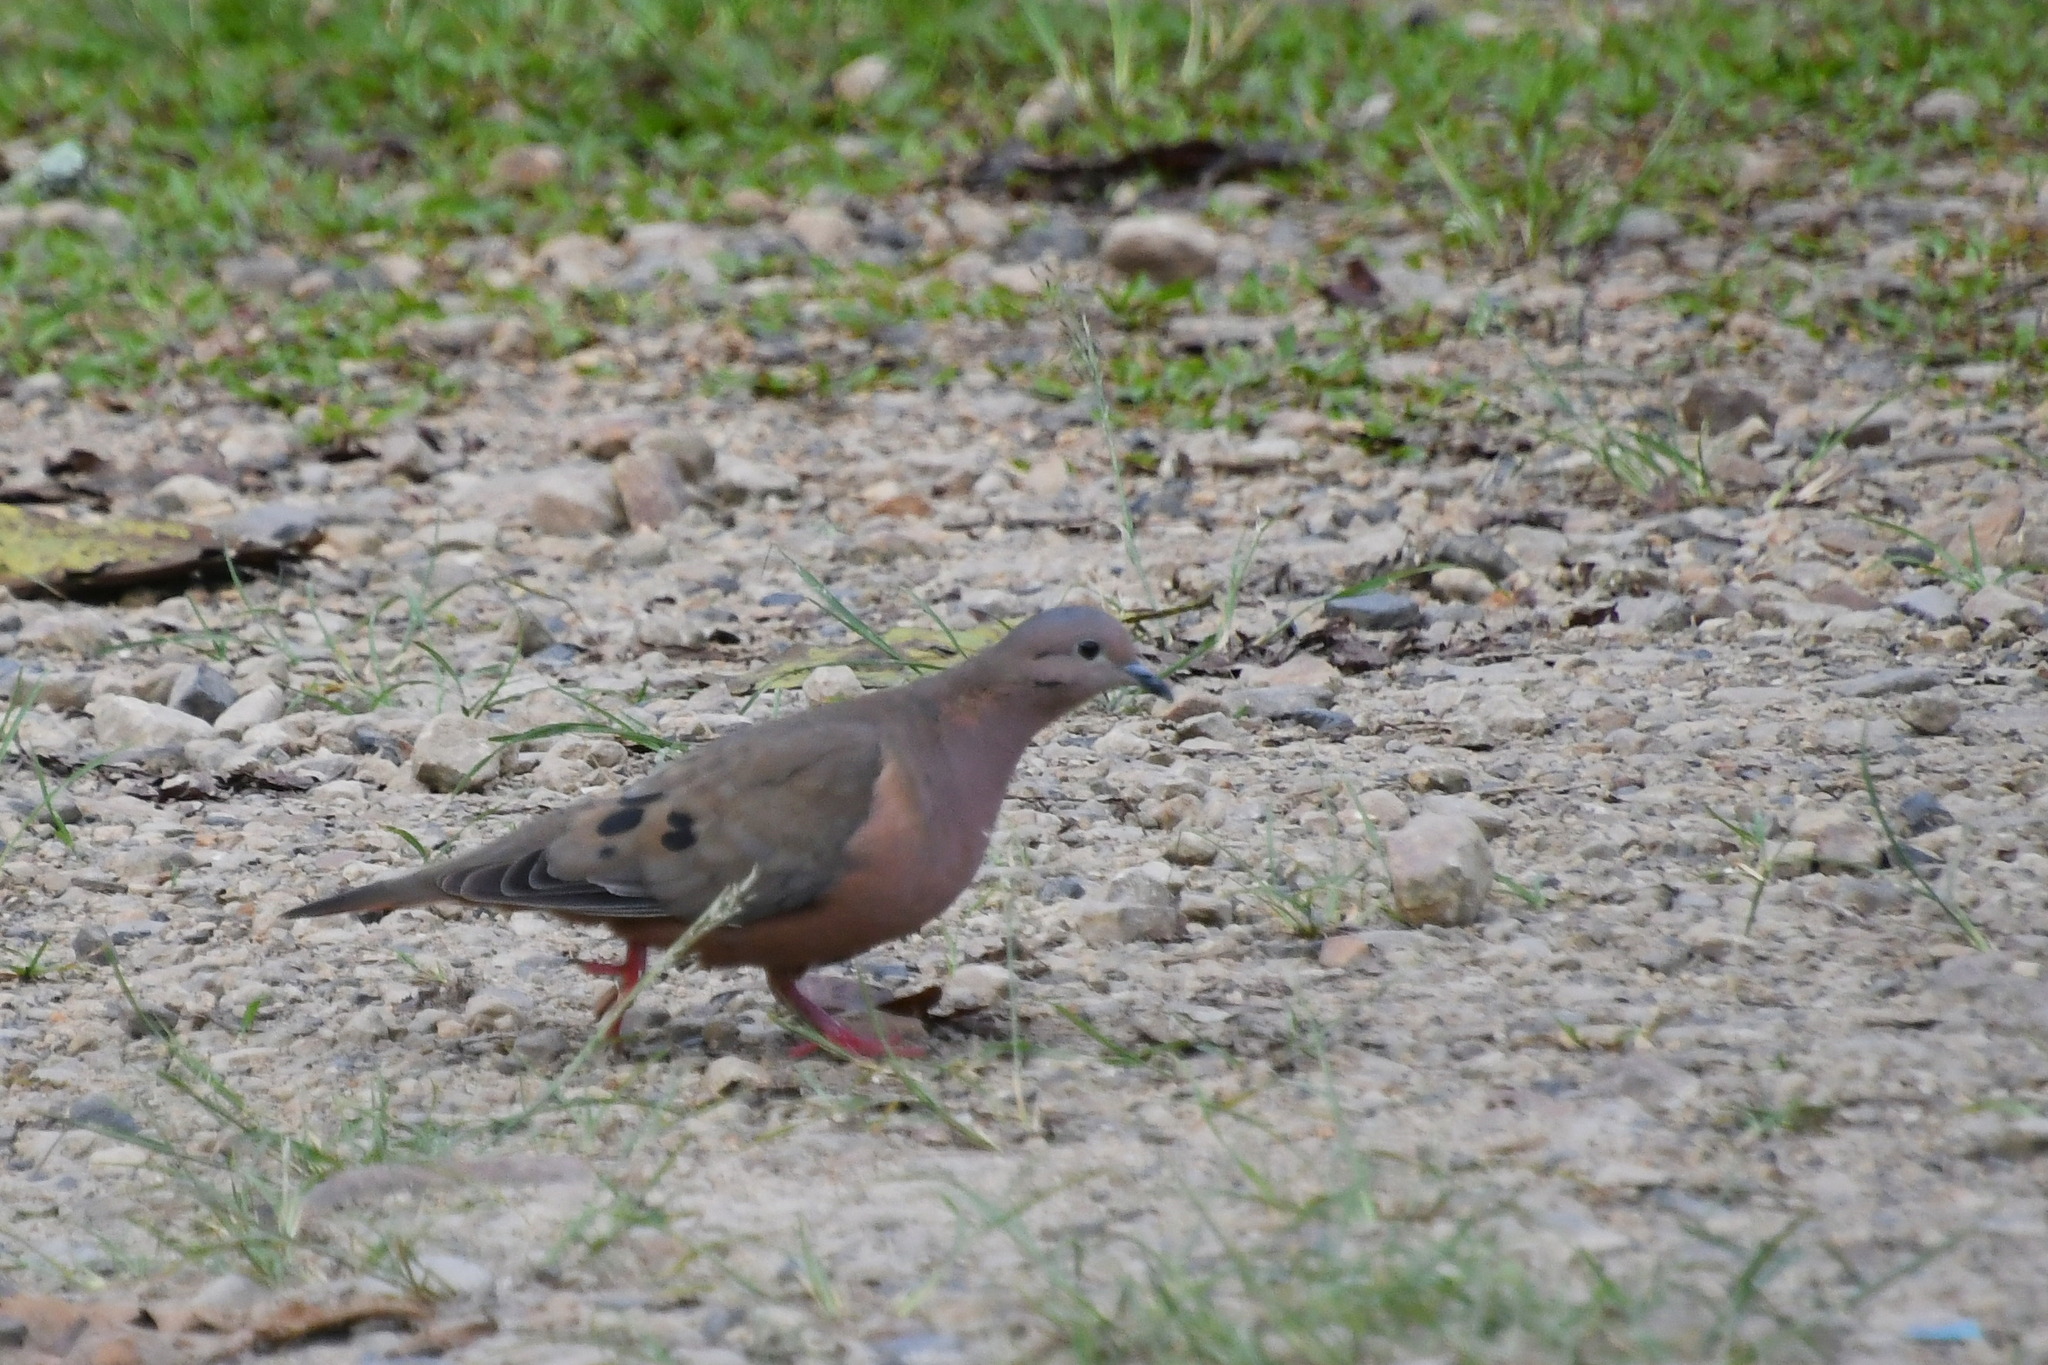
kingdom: Animalia
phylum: Chordata
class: Aves
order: Columbiformes
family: Columbidae
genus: Zenaida
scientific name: Zenaida auriculata
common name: Eared dove
